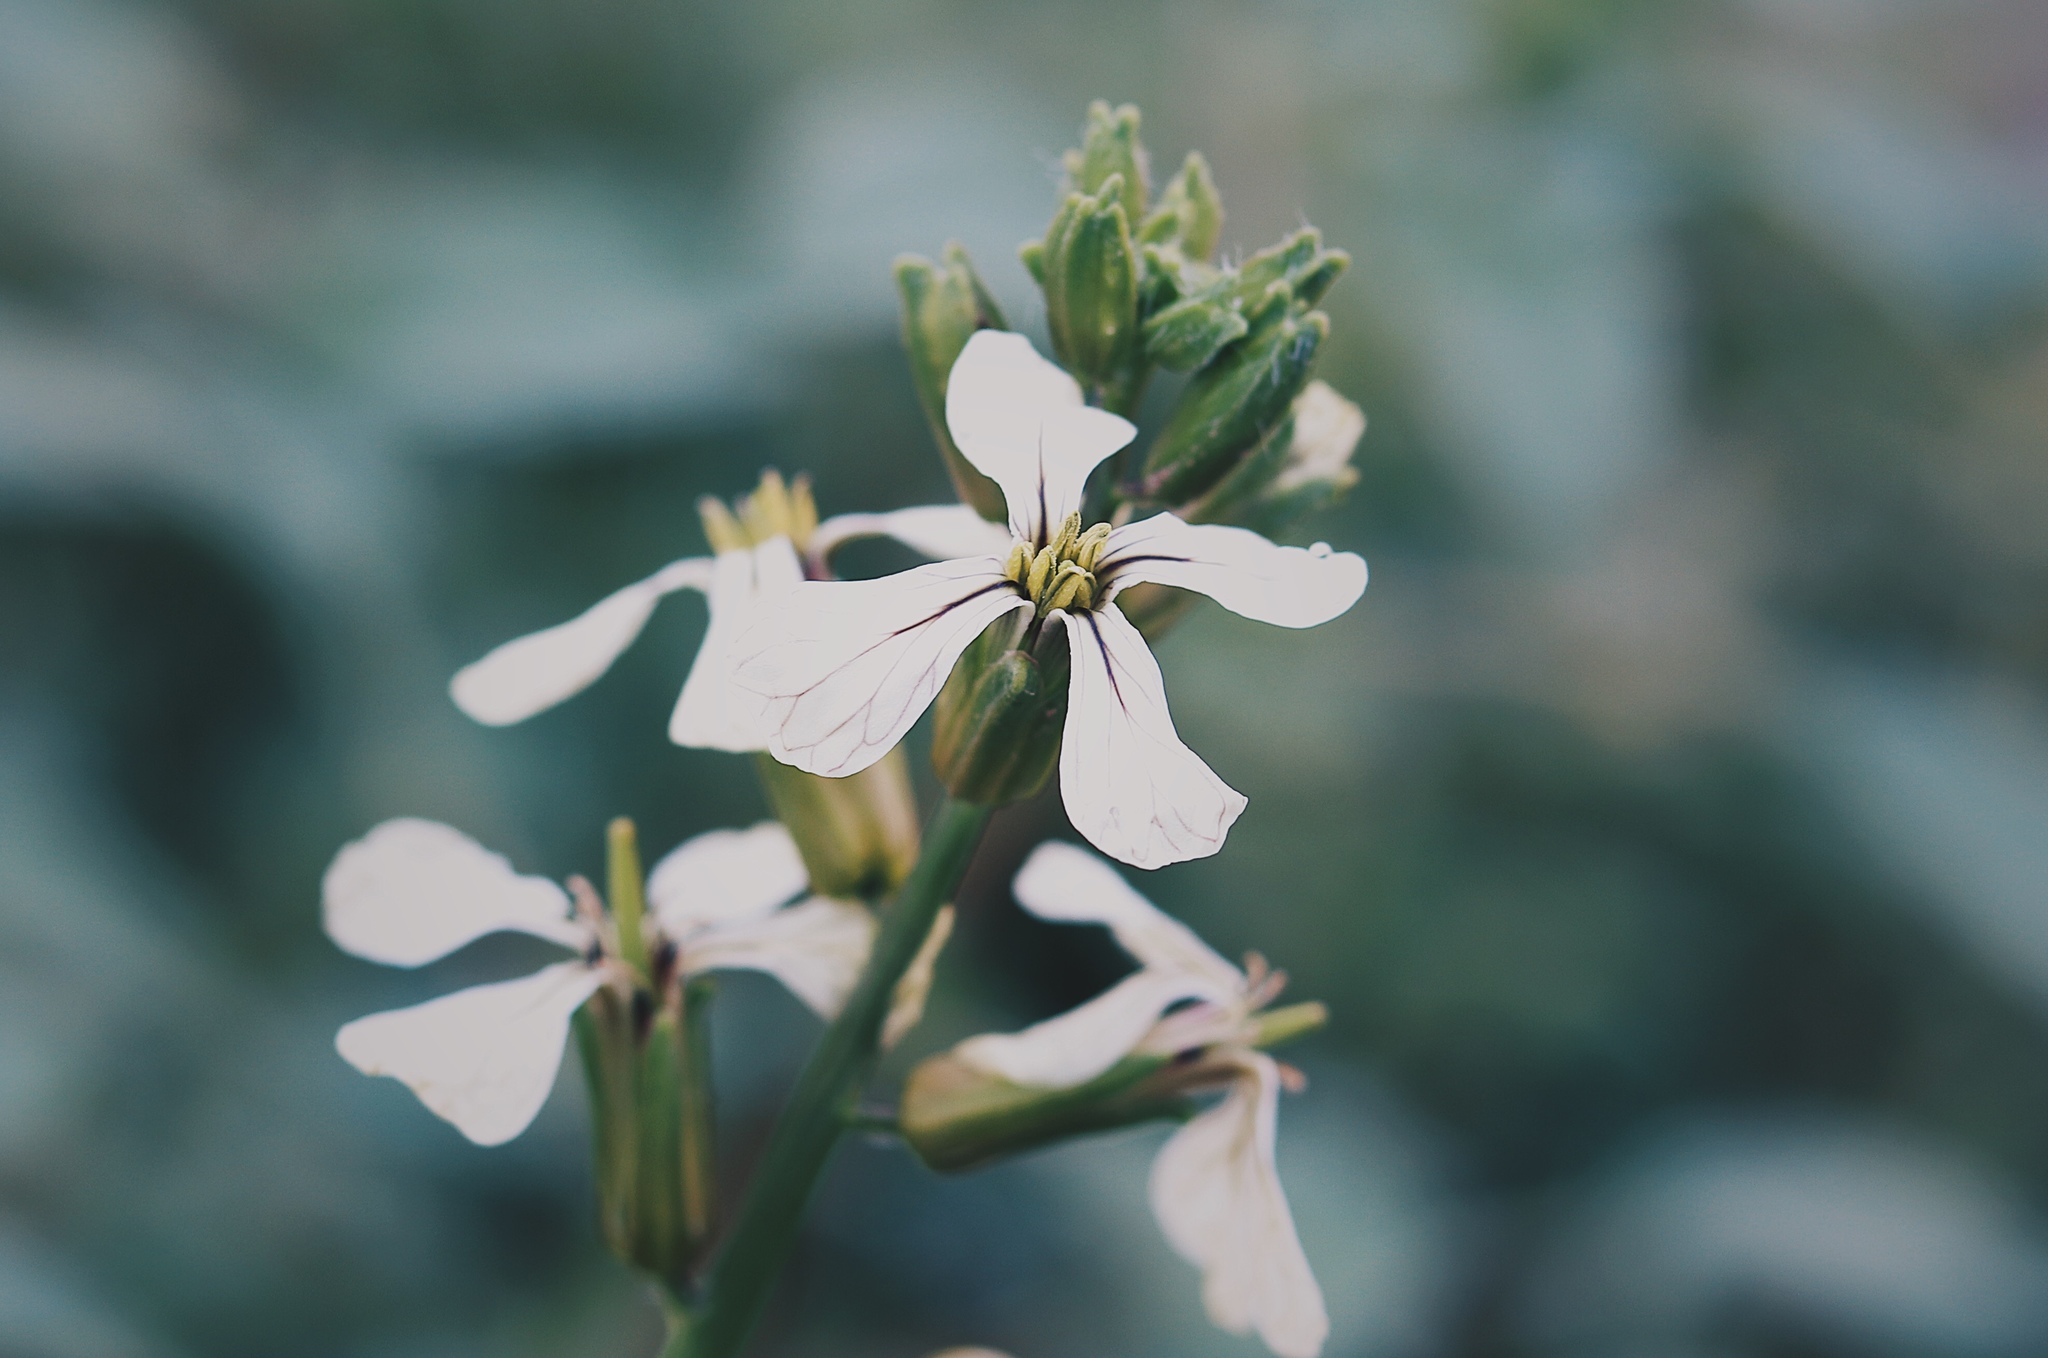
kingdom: Plantae
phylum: Tracheophyta
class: Magnoliopsida
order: Brassicales
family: Brassicaceae
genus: Eruca
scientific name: Eruca vesicaria
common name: Garden rocket
